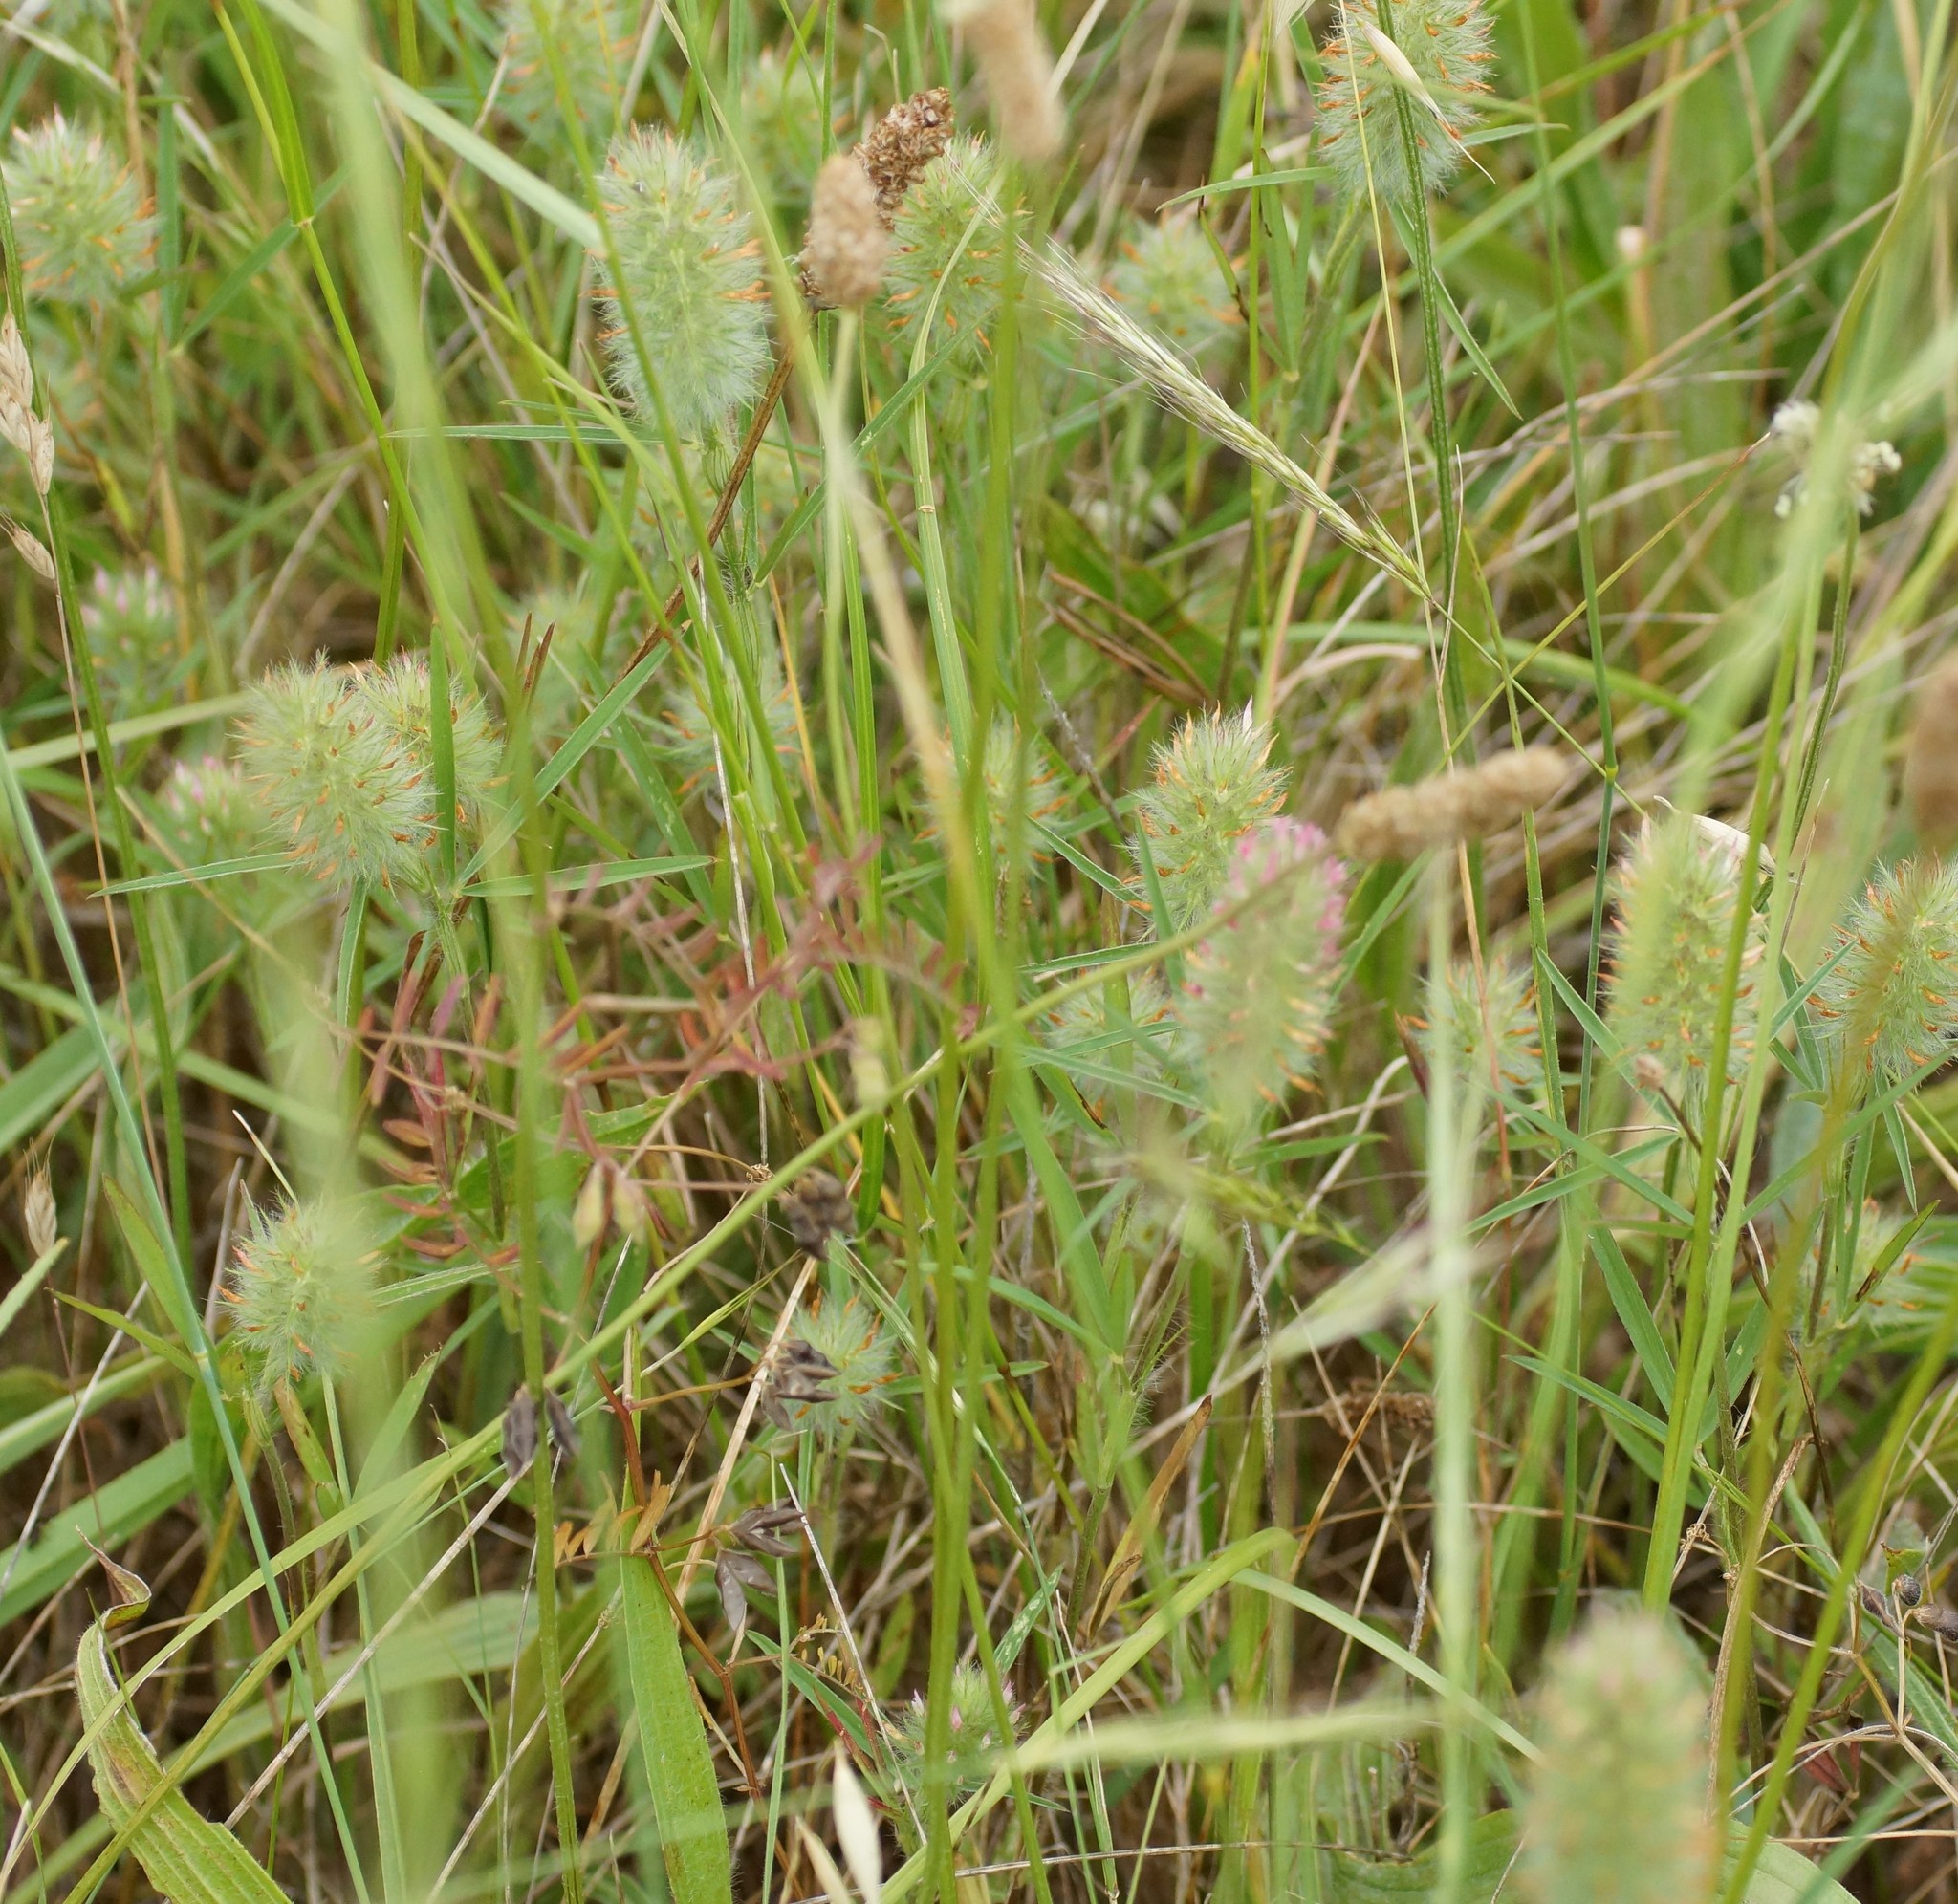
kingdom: Plantae
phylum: Tracheophyta
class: Magnoliopsida
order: Fabales
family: Fabaceae
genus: Trifolium
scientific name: Trifolium angustifolium
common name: Narrow clover
